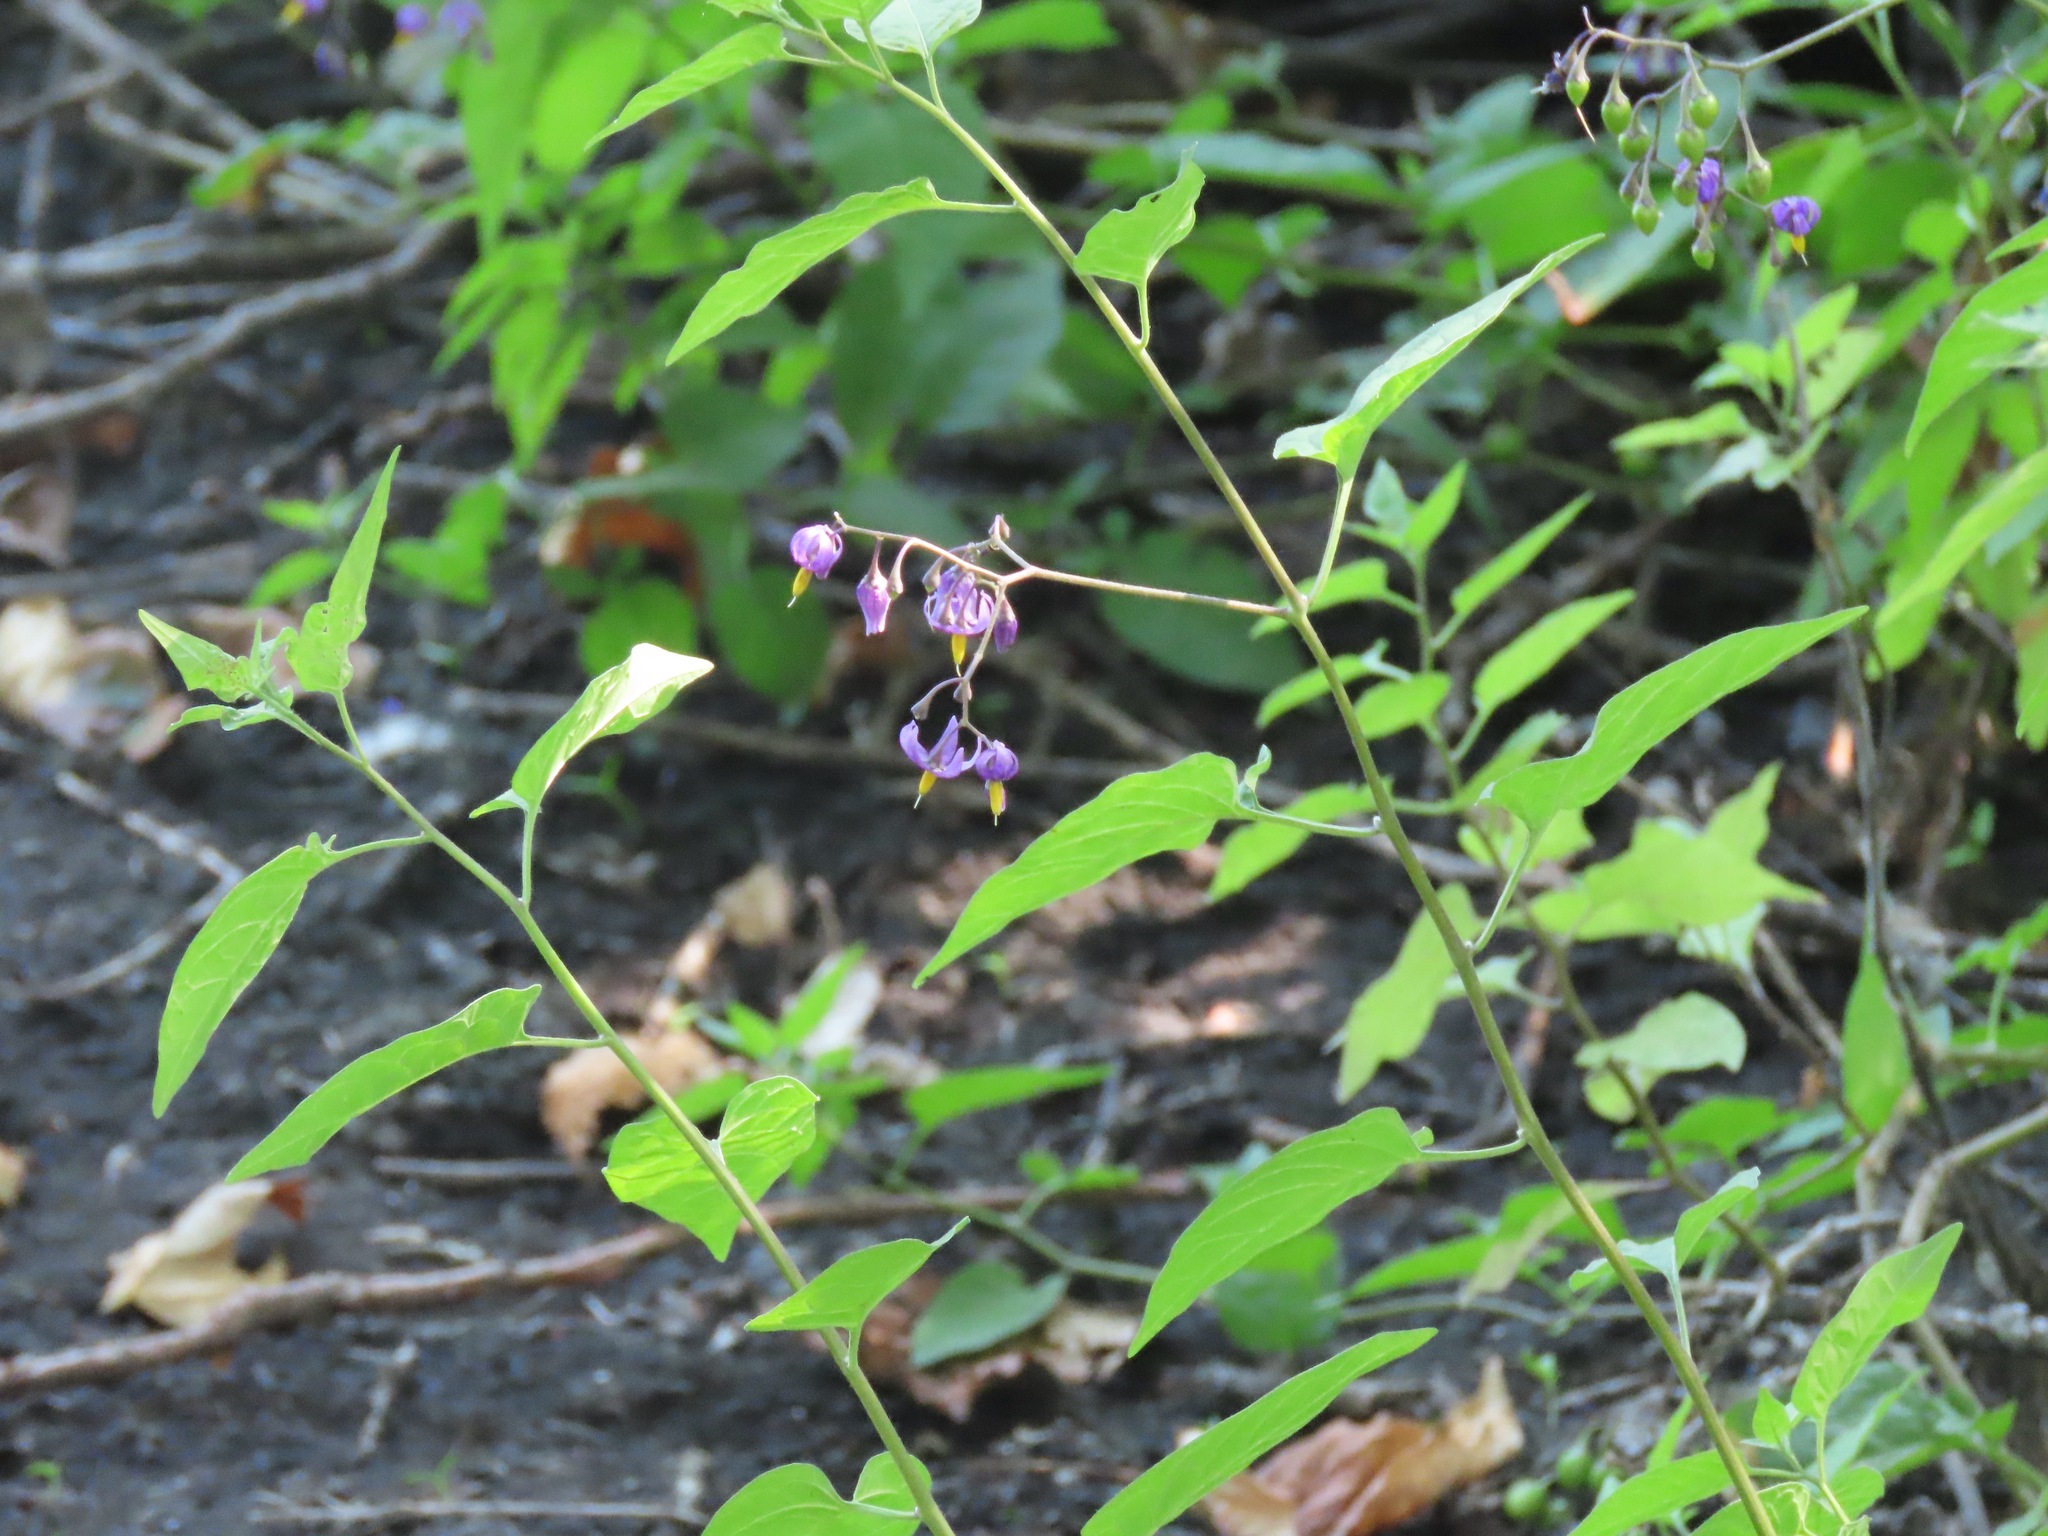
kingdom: Plantae
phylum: Tracheophyta
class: Magnoliopsida
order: Solanales
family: Solanaceae
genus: Solanum
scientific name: Solanum dulcamara
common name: Climbing nightshade
